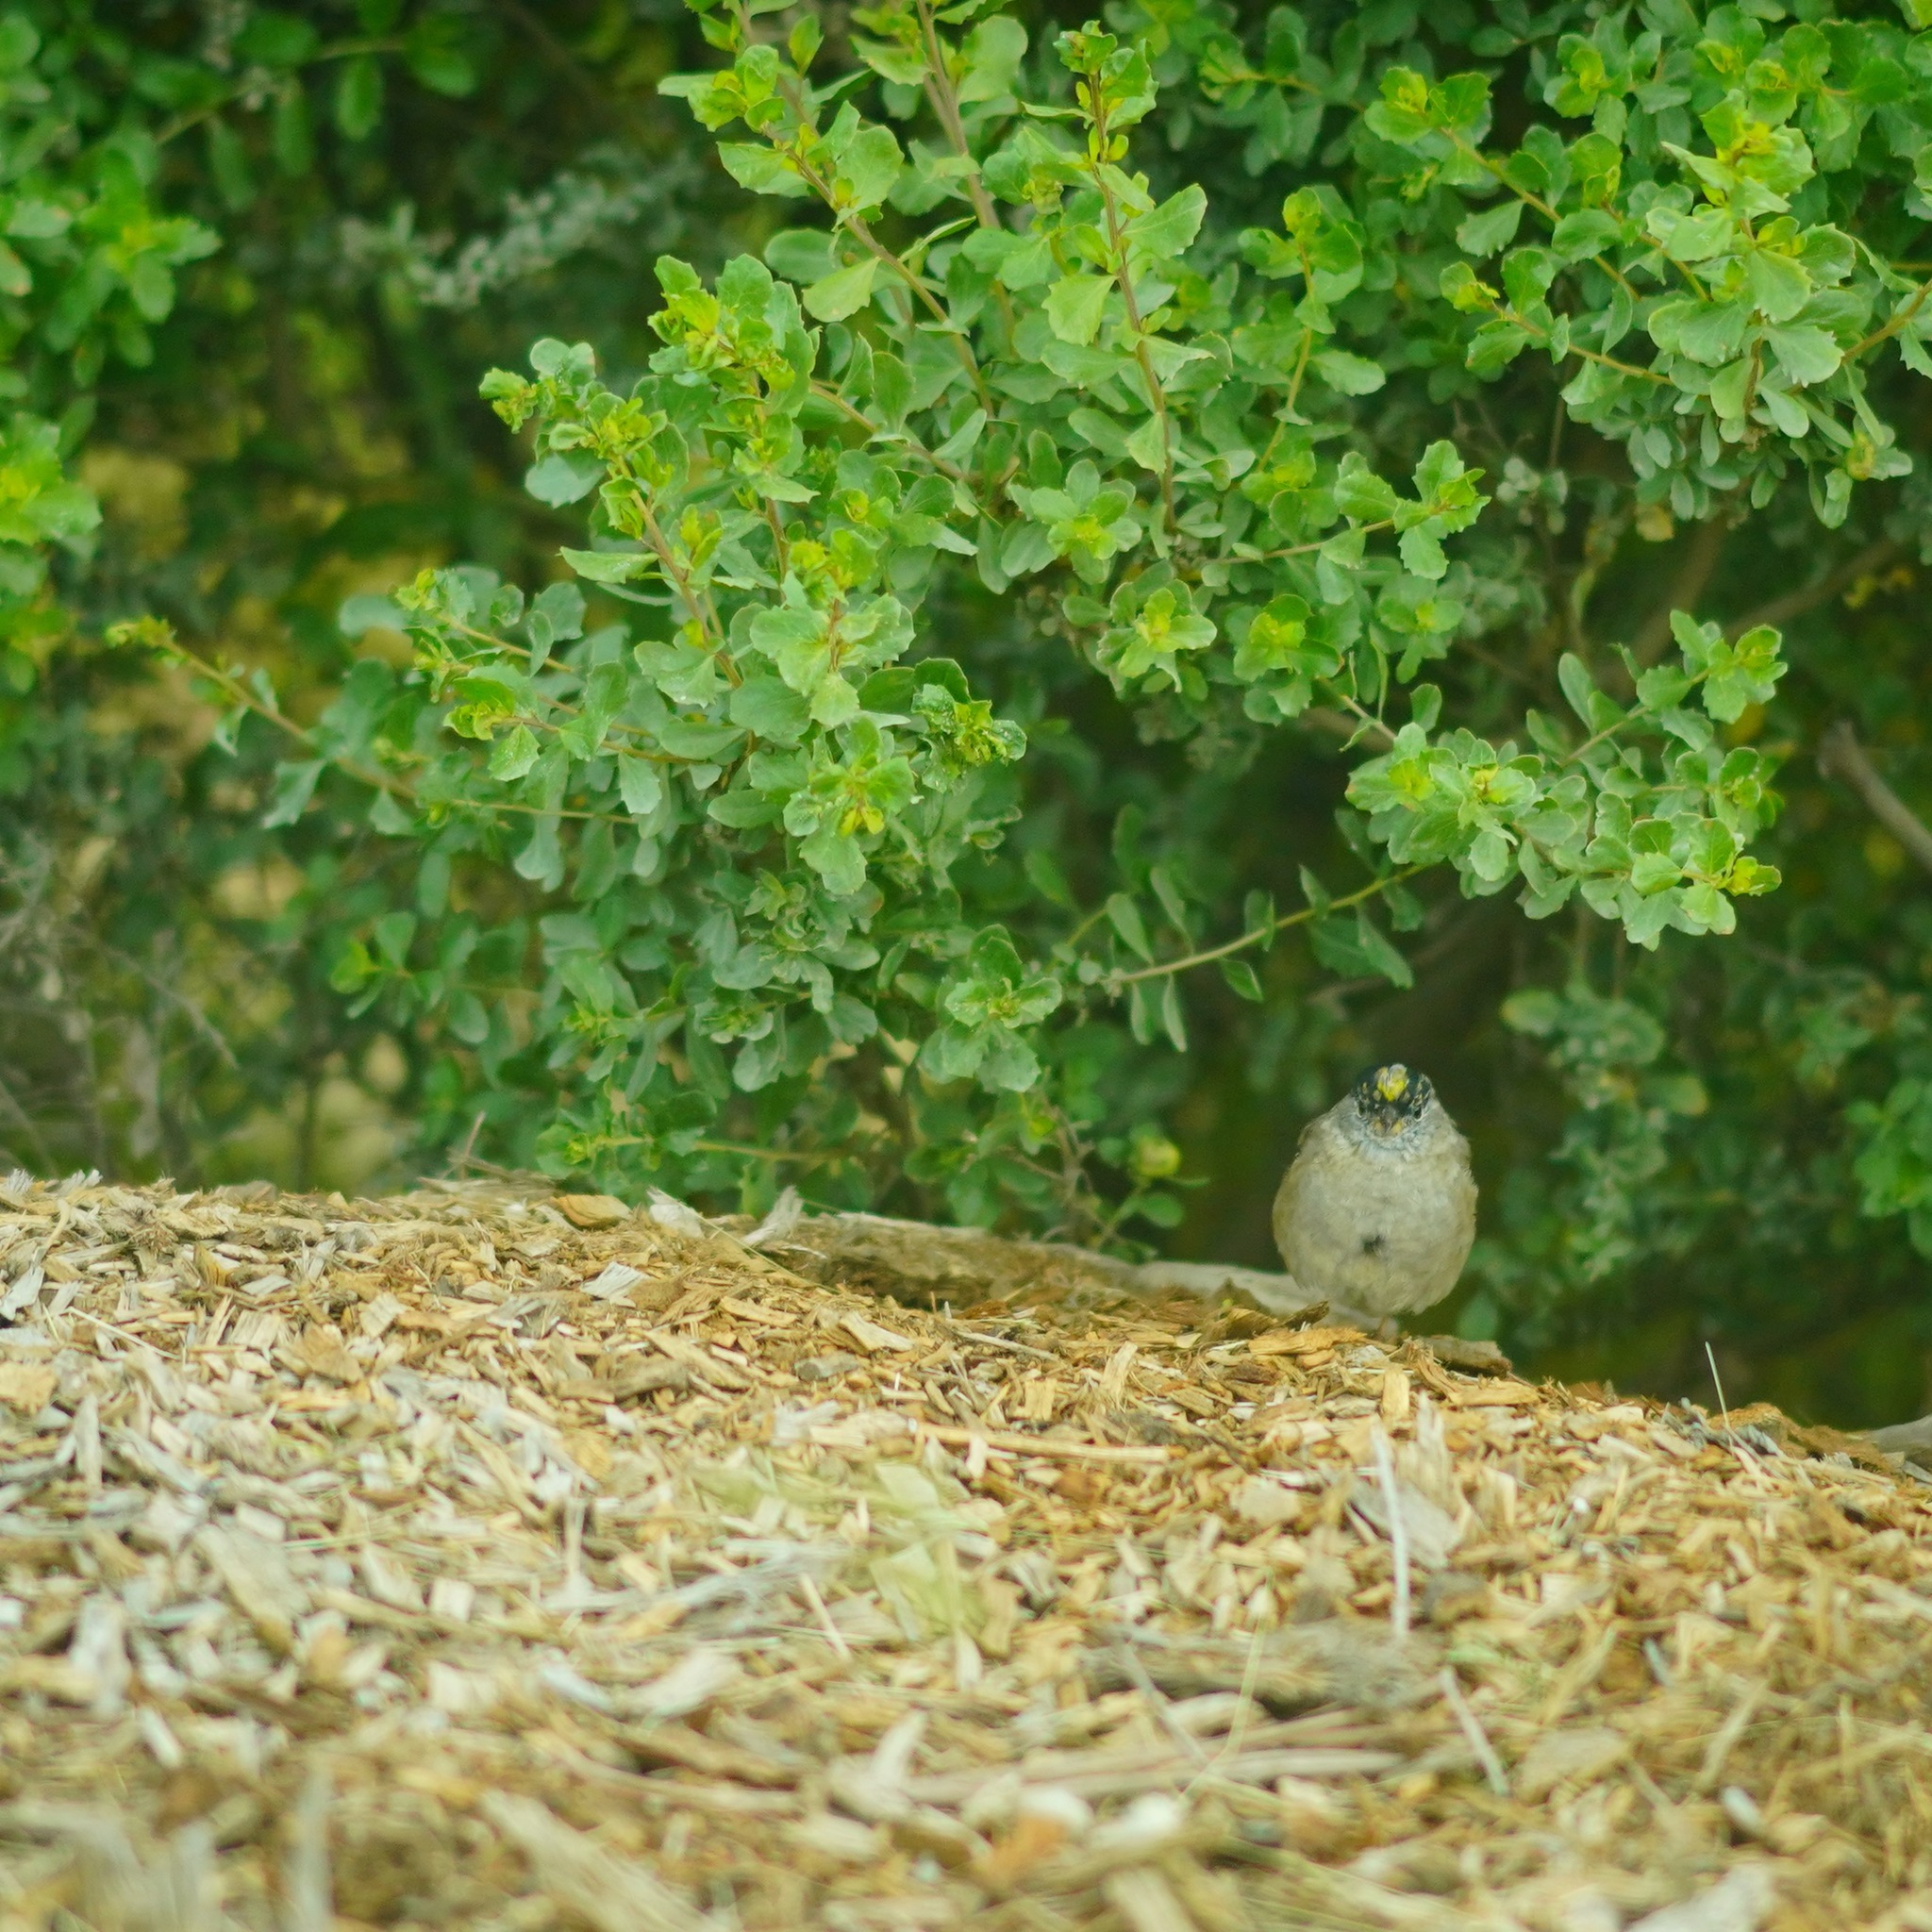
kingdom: Animalia
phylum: Chordata
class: Aves
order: Passeriformes
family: Passerellidae
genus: Zonotrichia
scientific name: Zonotrichia atricapilla
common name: Golden-crowned sparrow
